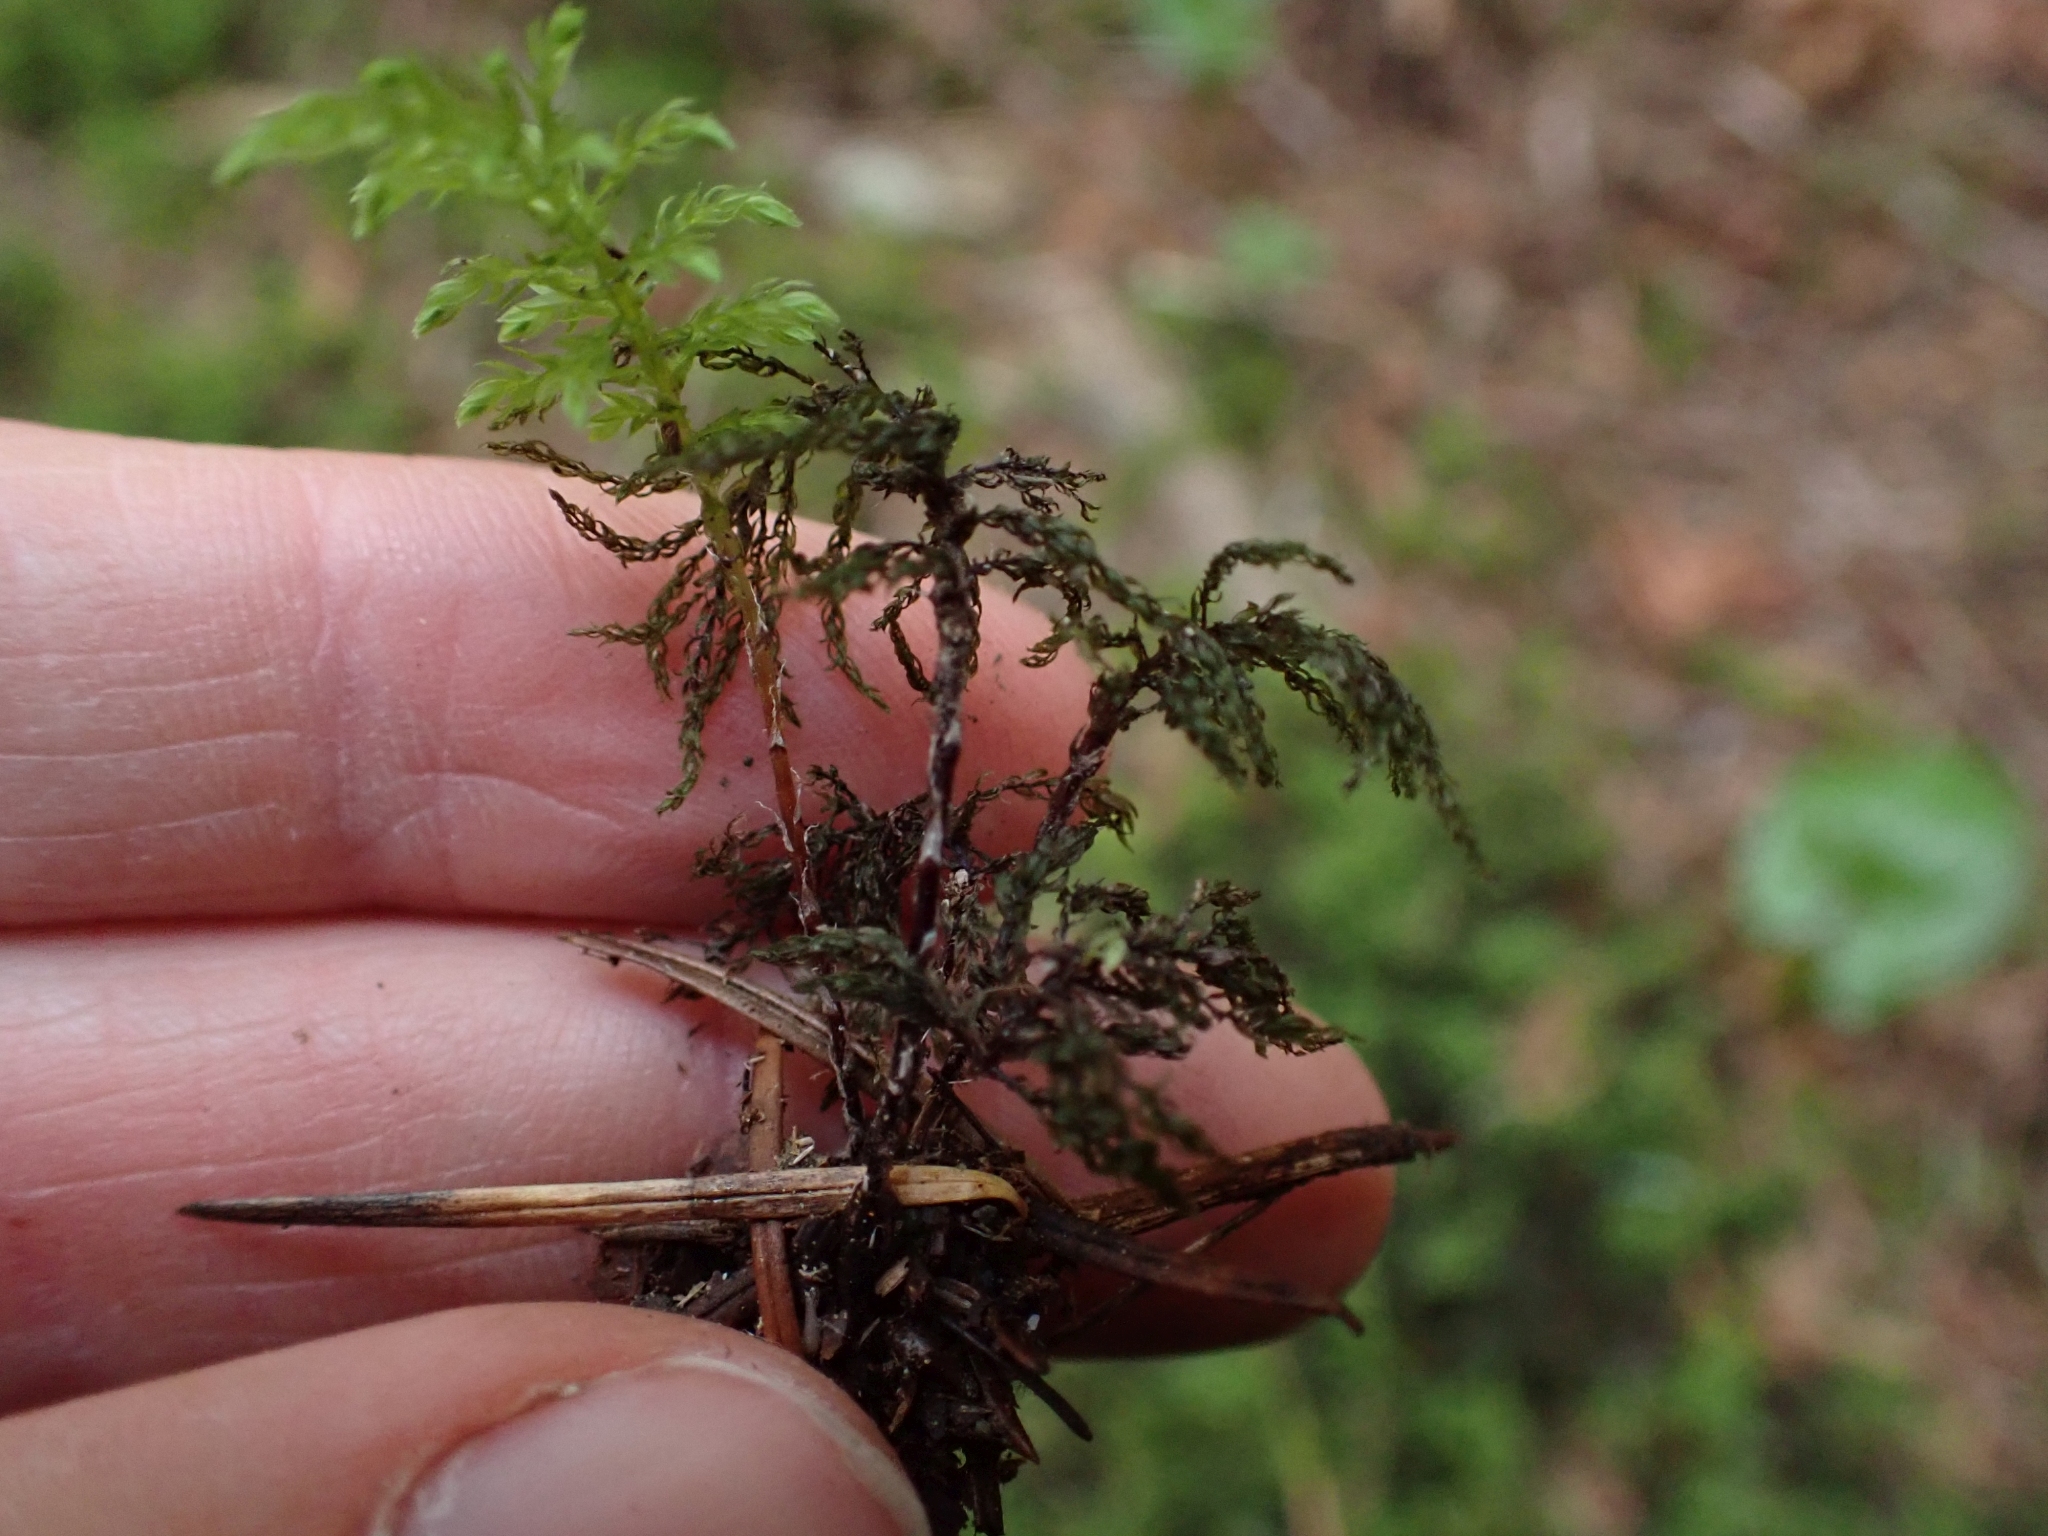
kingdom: Plantae
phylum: Bryophyta
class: Bryopsida
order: Bryales
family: Mniaceae
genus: Leucolepis
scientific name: Leucolepis acanthoneura
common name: Leucolepis umbrella moss
